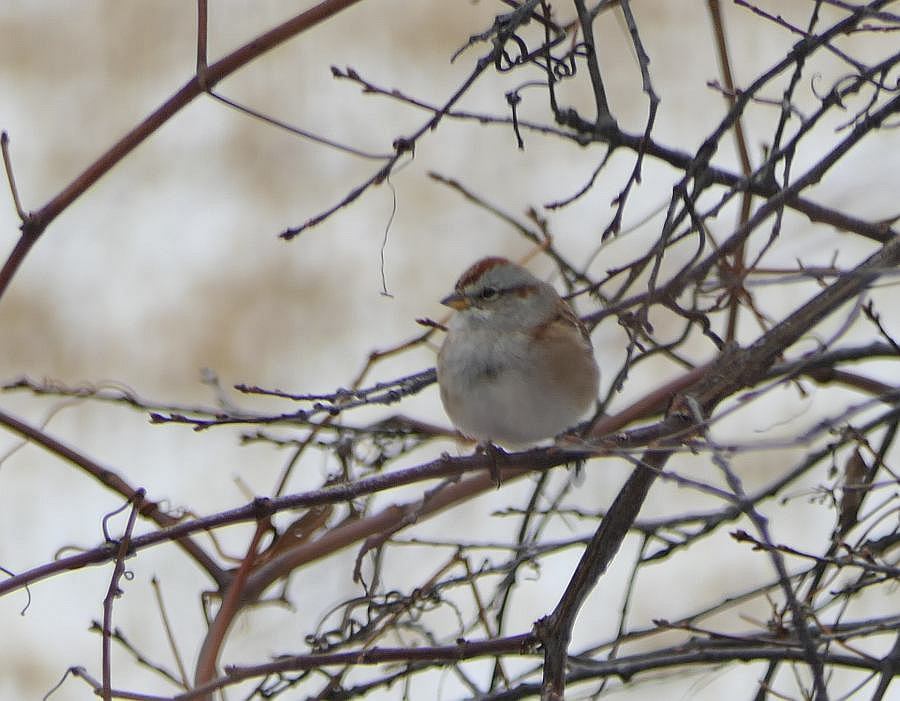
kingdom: Animalia
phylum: Chordata
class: Aves
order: Passeriformes
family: Passerellidae
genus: Spizelloides
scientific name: Spizelloides arborea
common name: American tree sparrow
